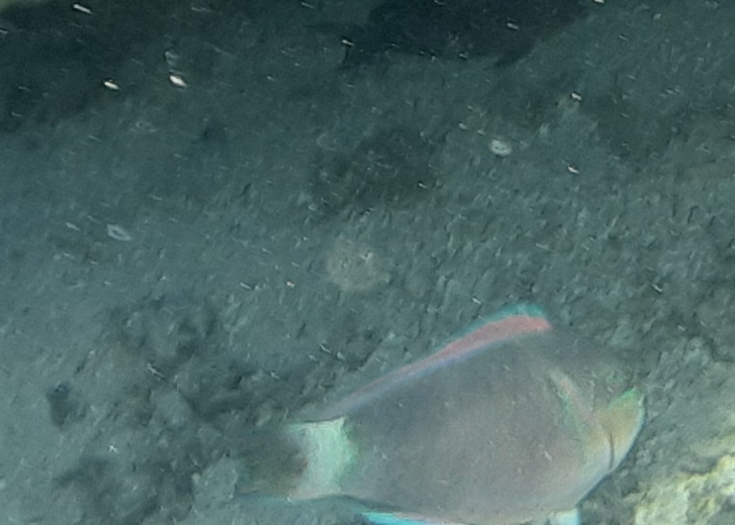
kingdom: Animalia
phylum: Chordata
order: Perciformes
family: Scaridae
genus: Chlorurus
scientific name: Chlorurus spilurus
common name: Bullethead parrotfish
